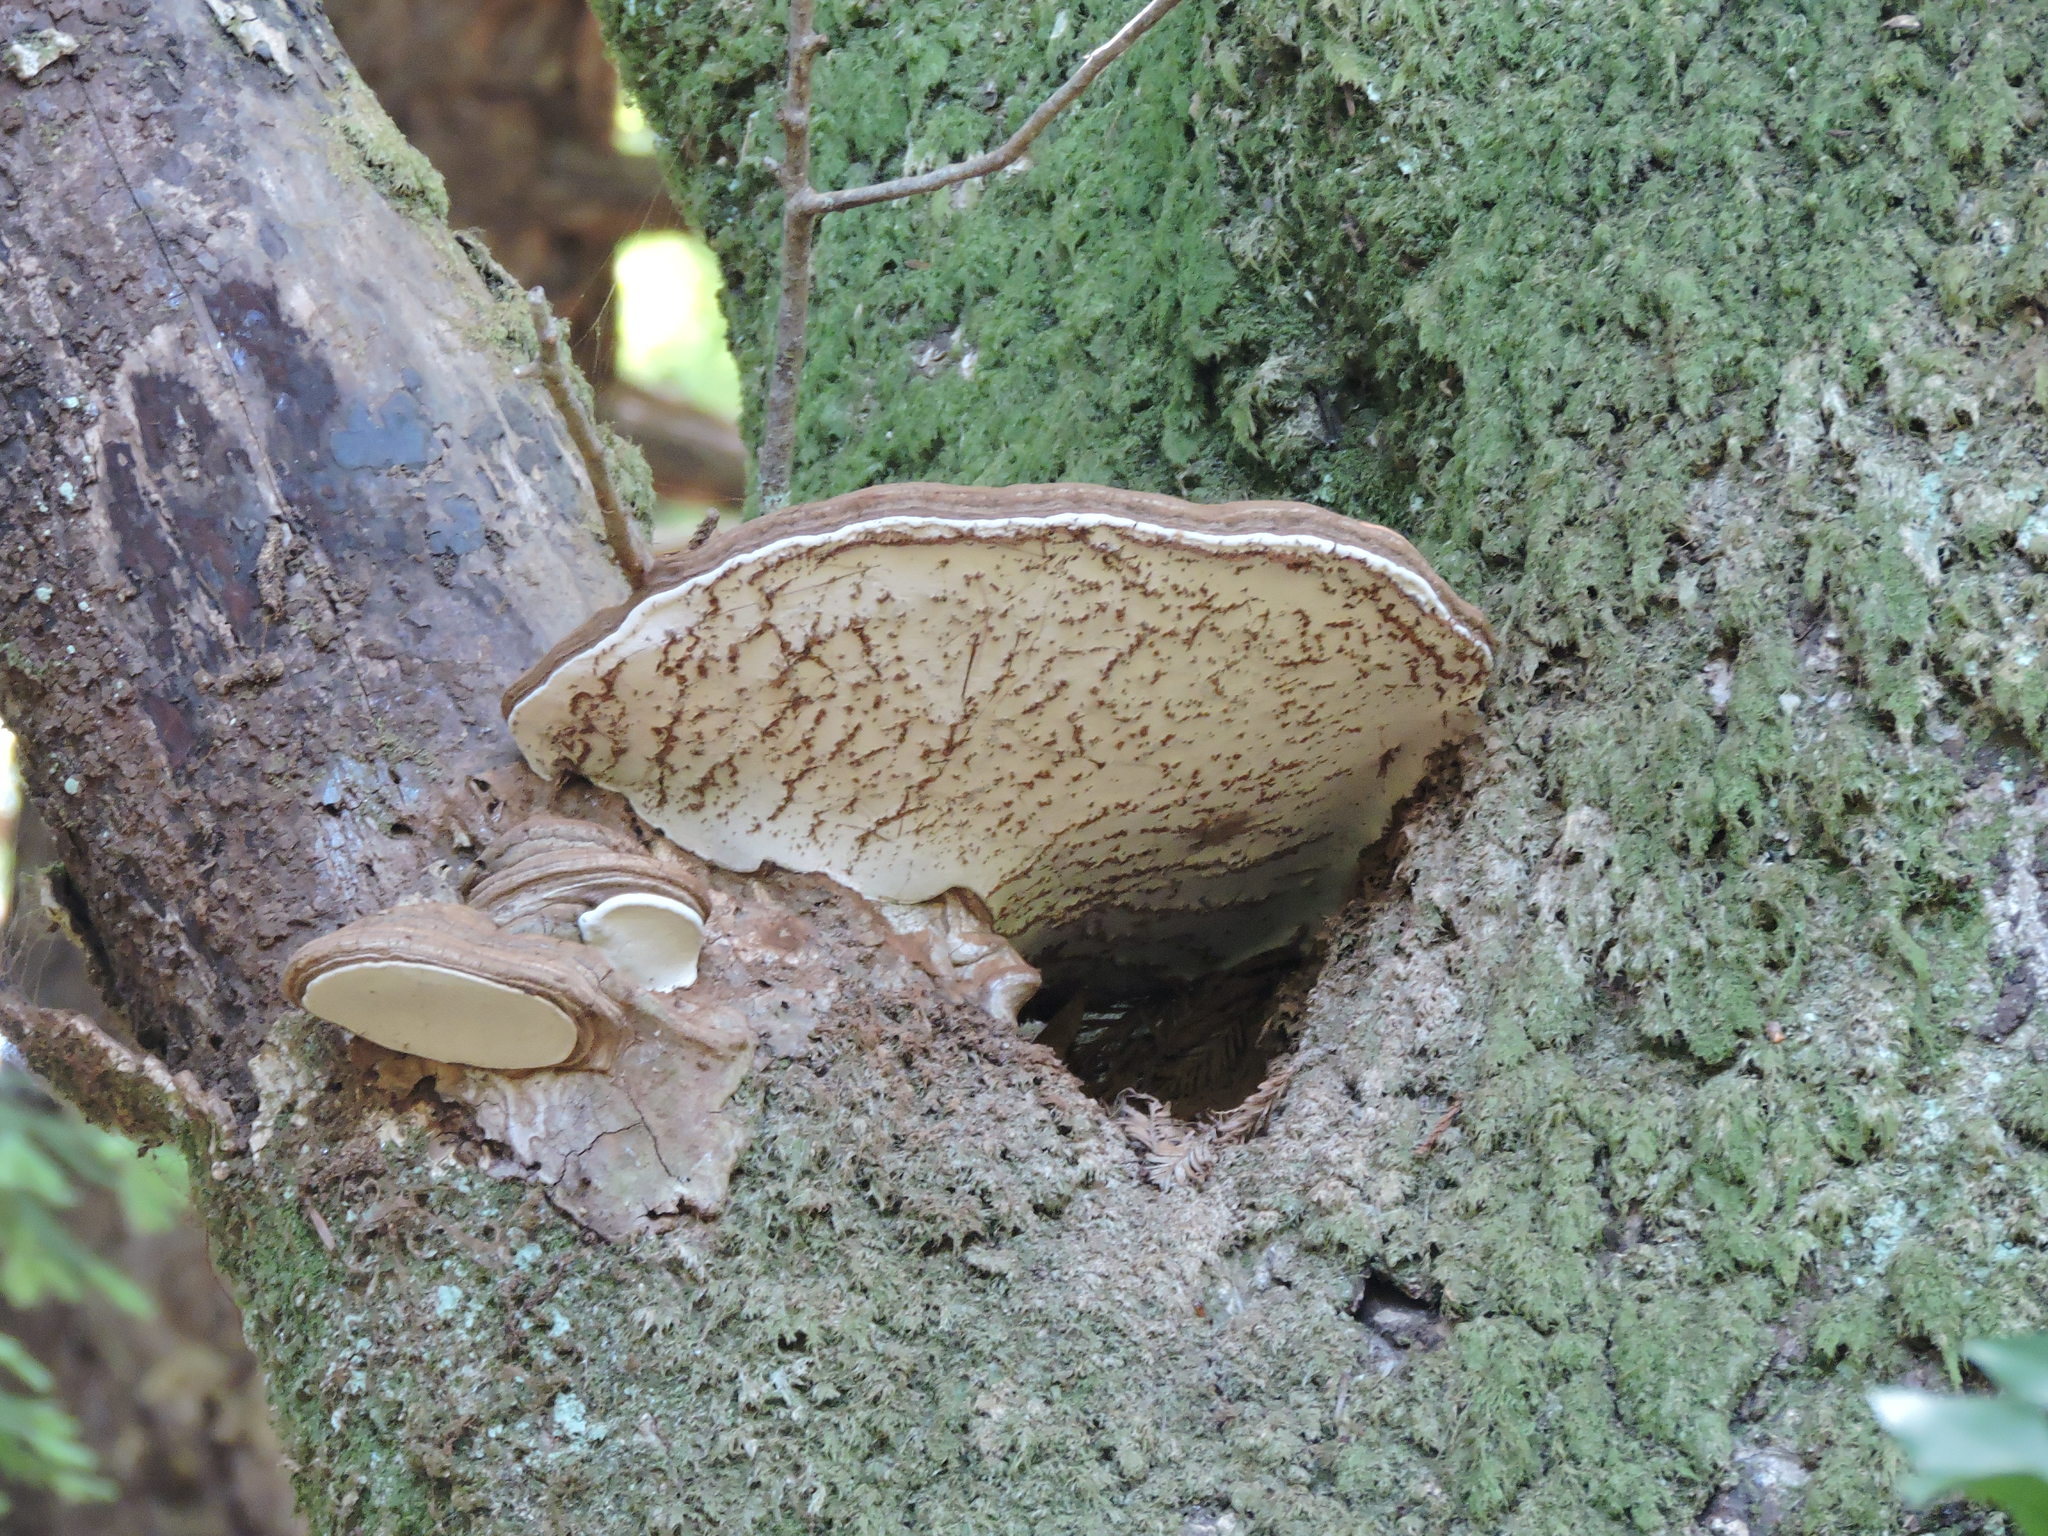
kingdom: Fungi
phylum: Basidiomycota
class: Agaricomycetes
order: Polyporales
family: Polyporaceae
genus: Ganoderma
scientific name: Ganoderma brownii
